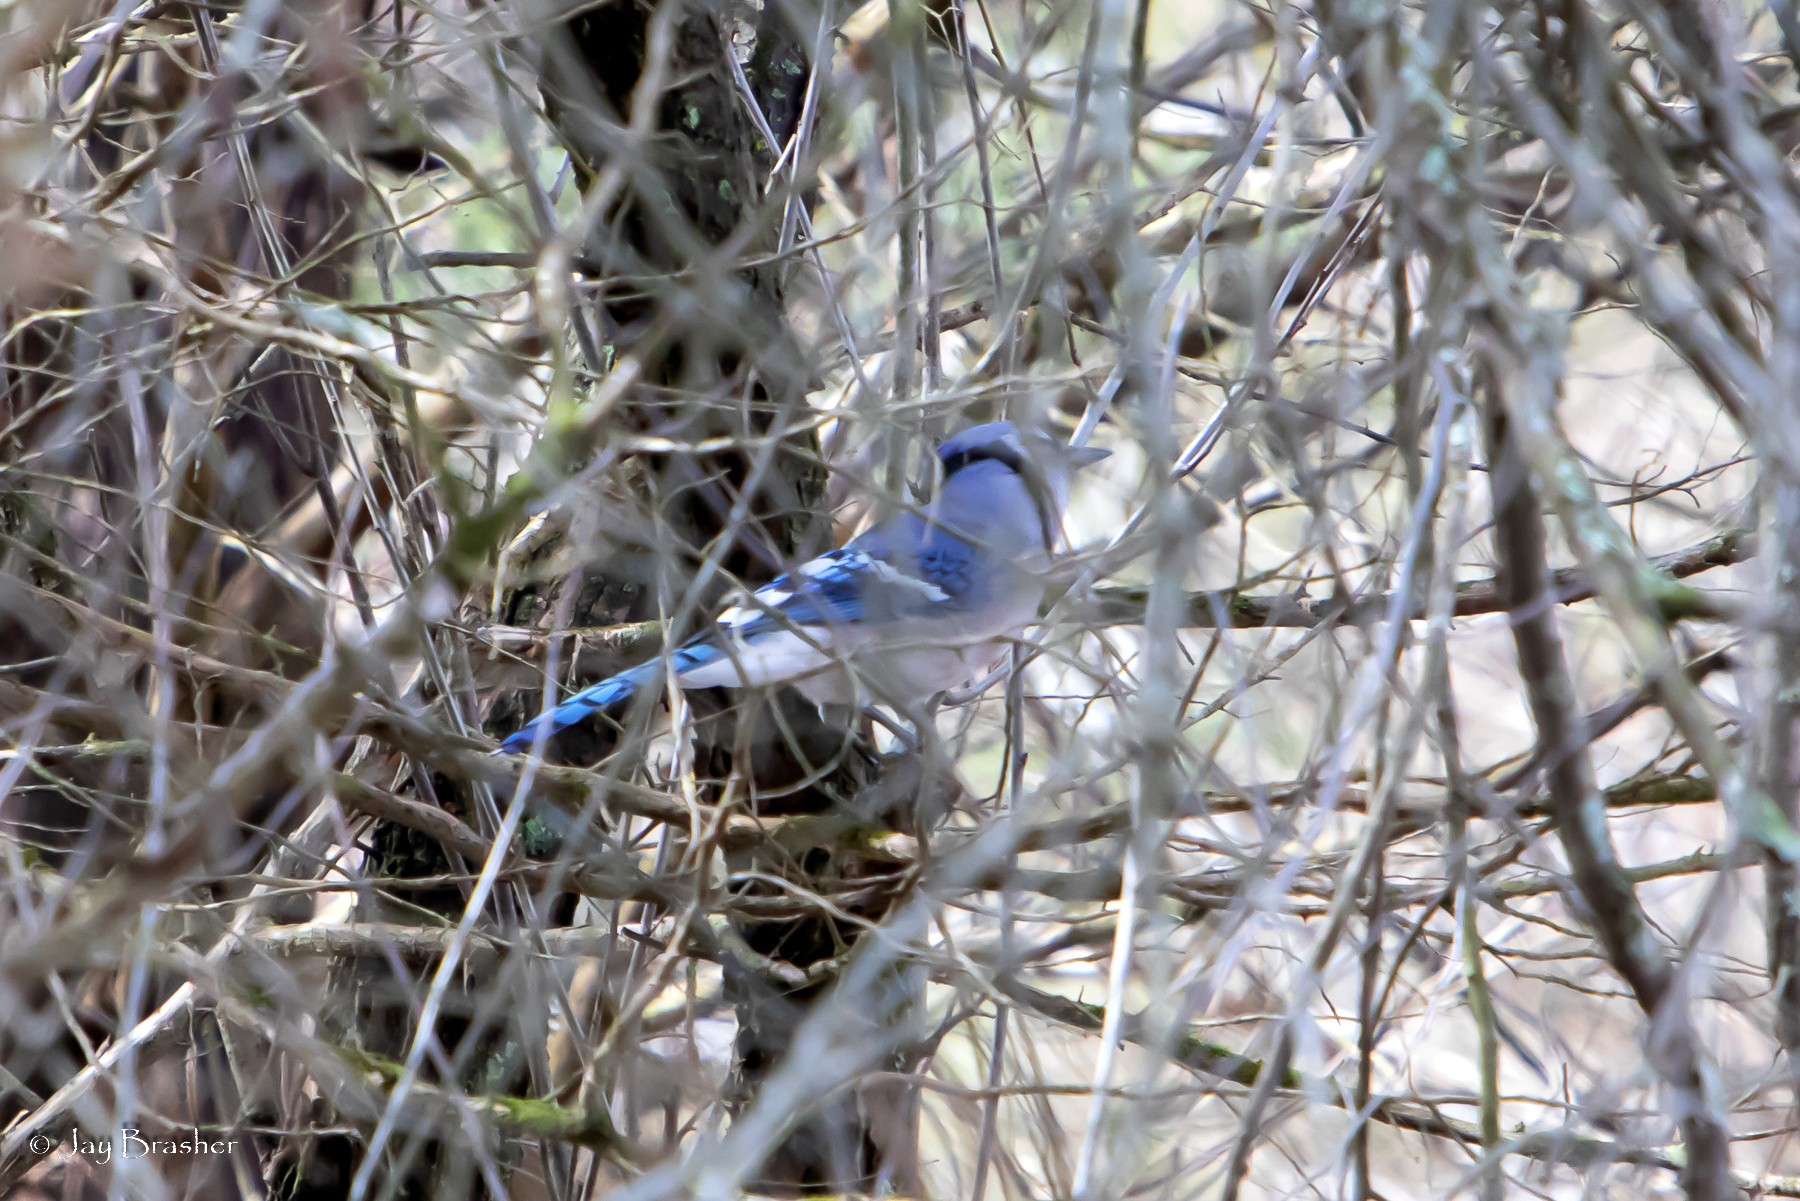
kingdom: Animalia
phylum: Chordata
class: Aves
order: Passeriformes
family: Corvidae
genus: Cyanocitta
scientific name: Cyanocitta cristata
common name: Blue jay
